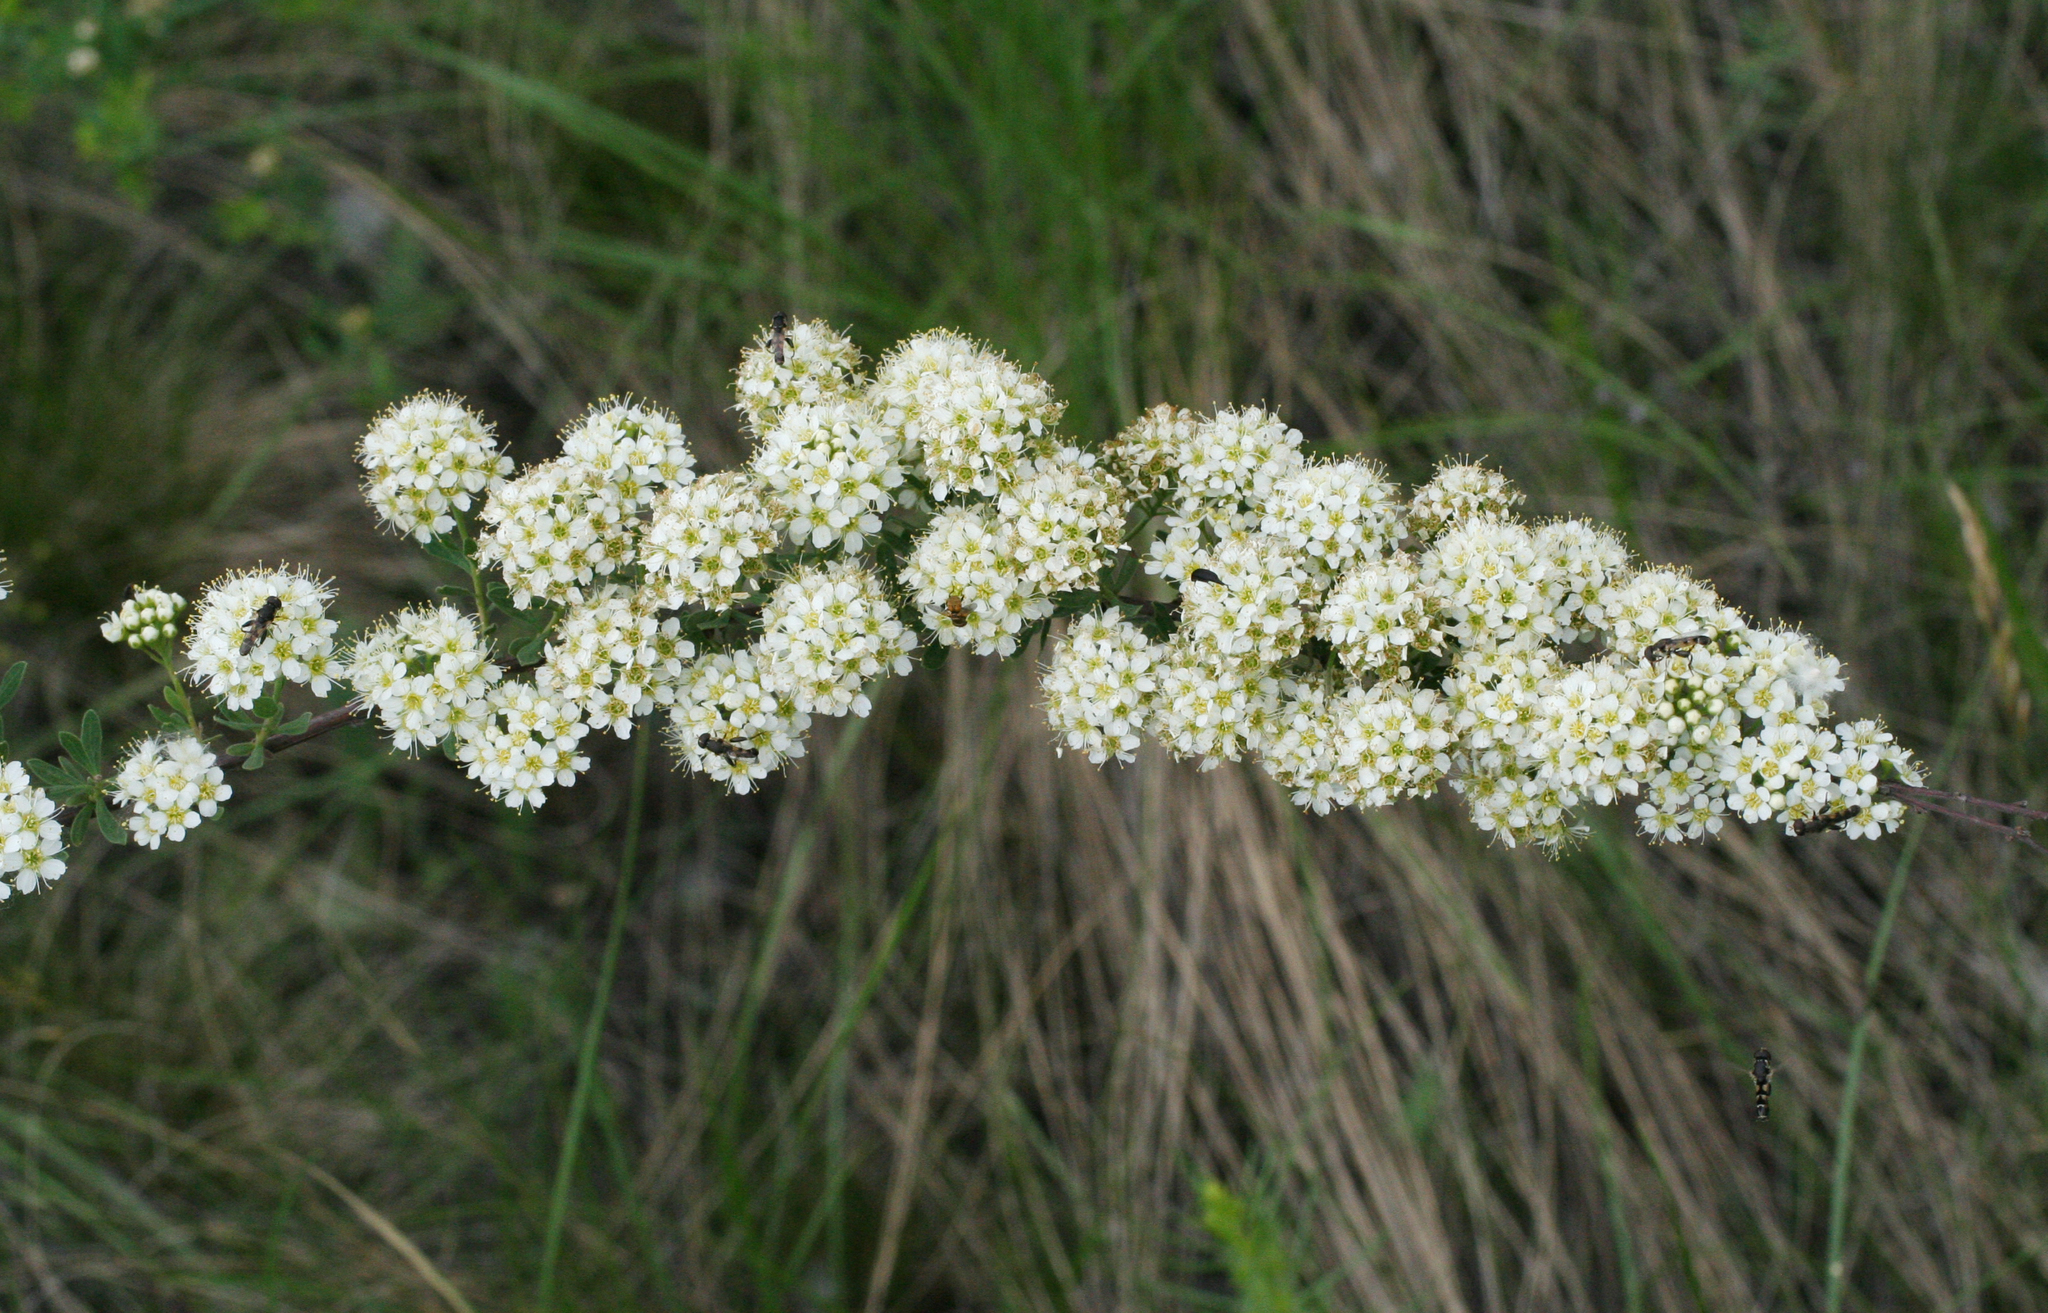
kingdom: Plantae
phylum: Tracheophyta
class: Magnoliopsida
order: Rosales
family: Rosaceae
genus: Spiraea
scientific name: Spiraea hypericifolia
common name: Iberian spirea
